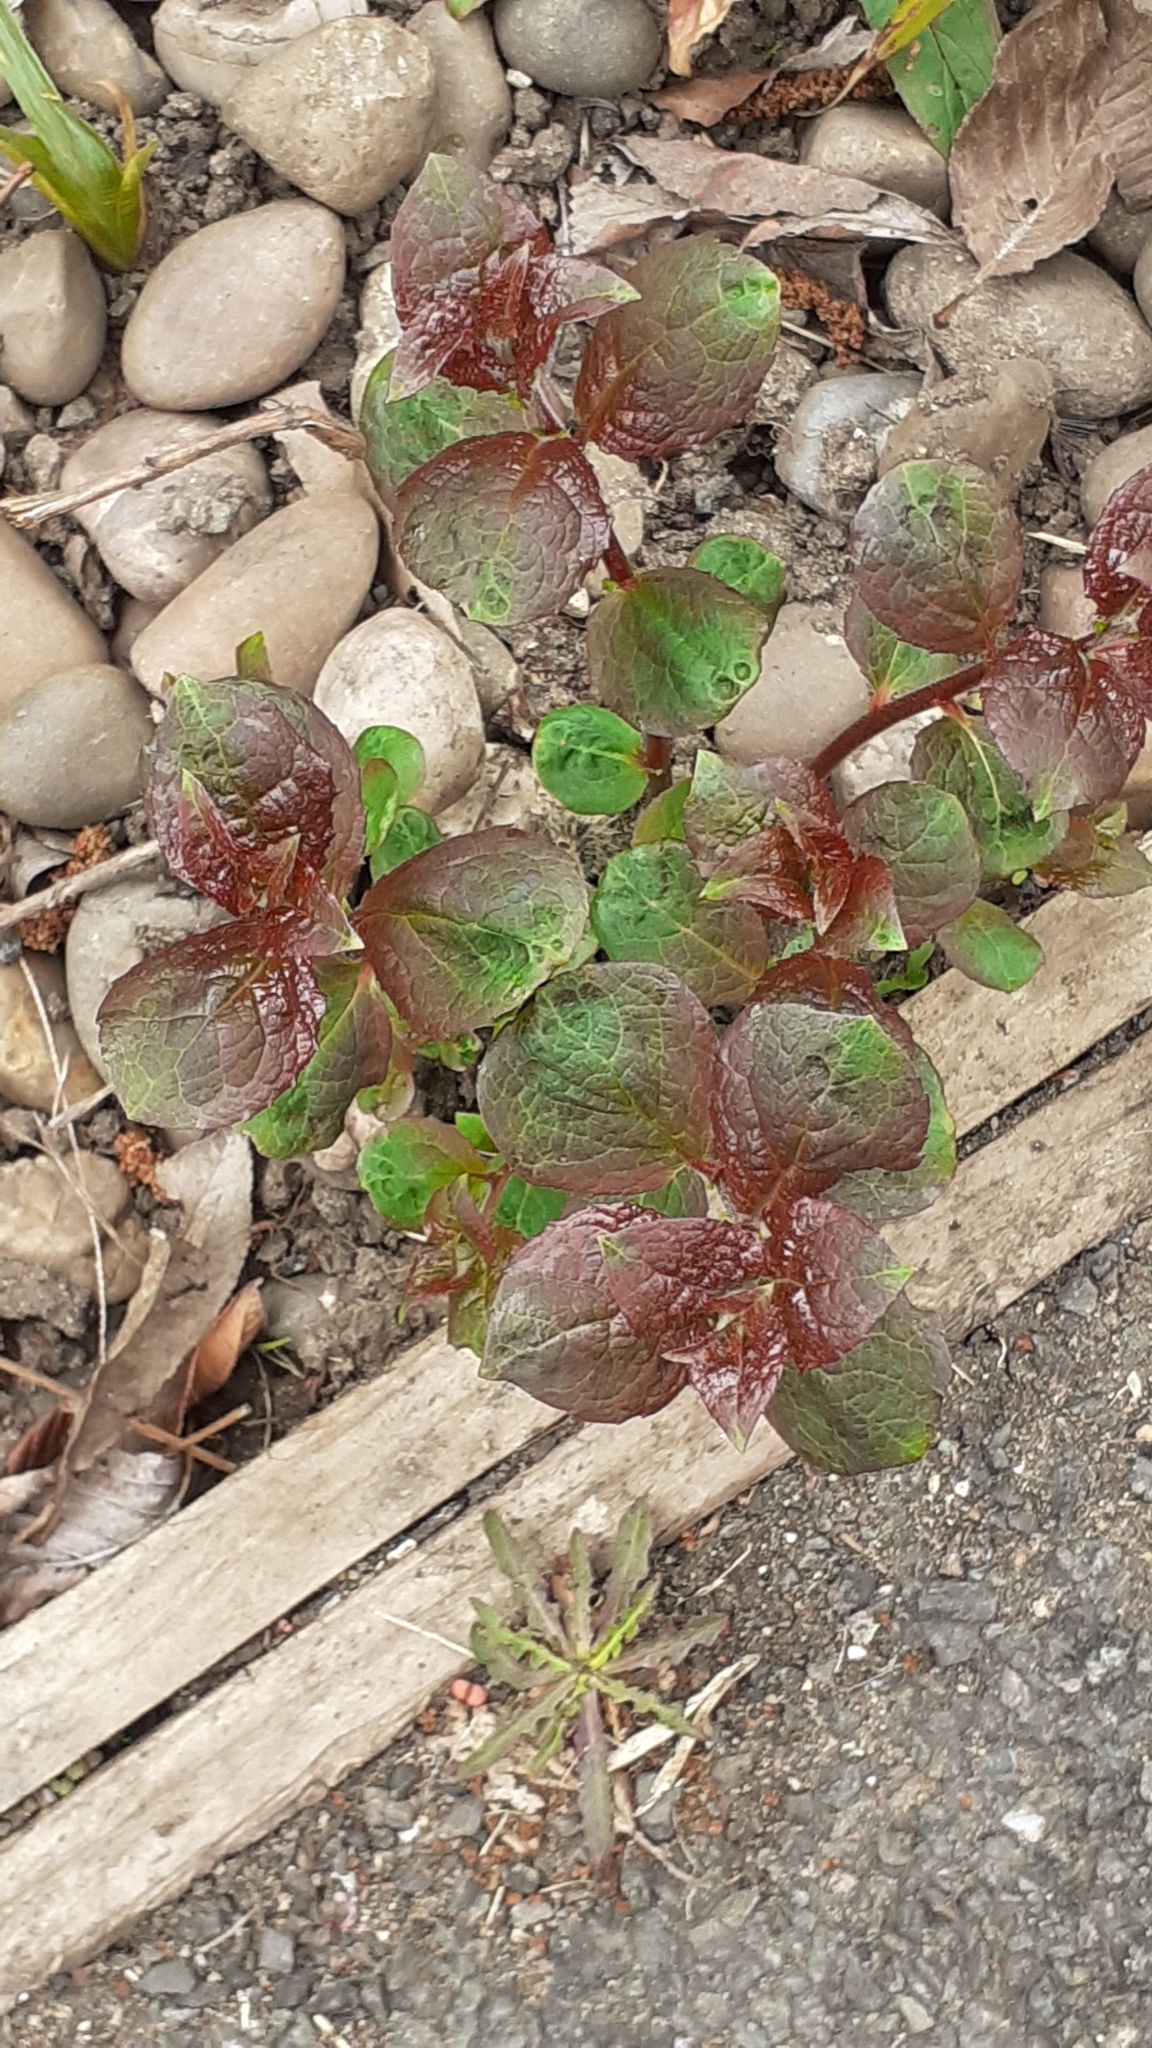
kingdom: Plantae
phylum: Tracheophyta
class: Magnoliopsida
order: Lamiales
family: Lamiaceae
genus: Mentha
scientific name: Mentha aquatica
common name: Water mint
